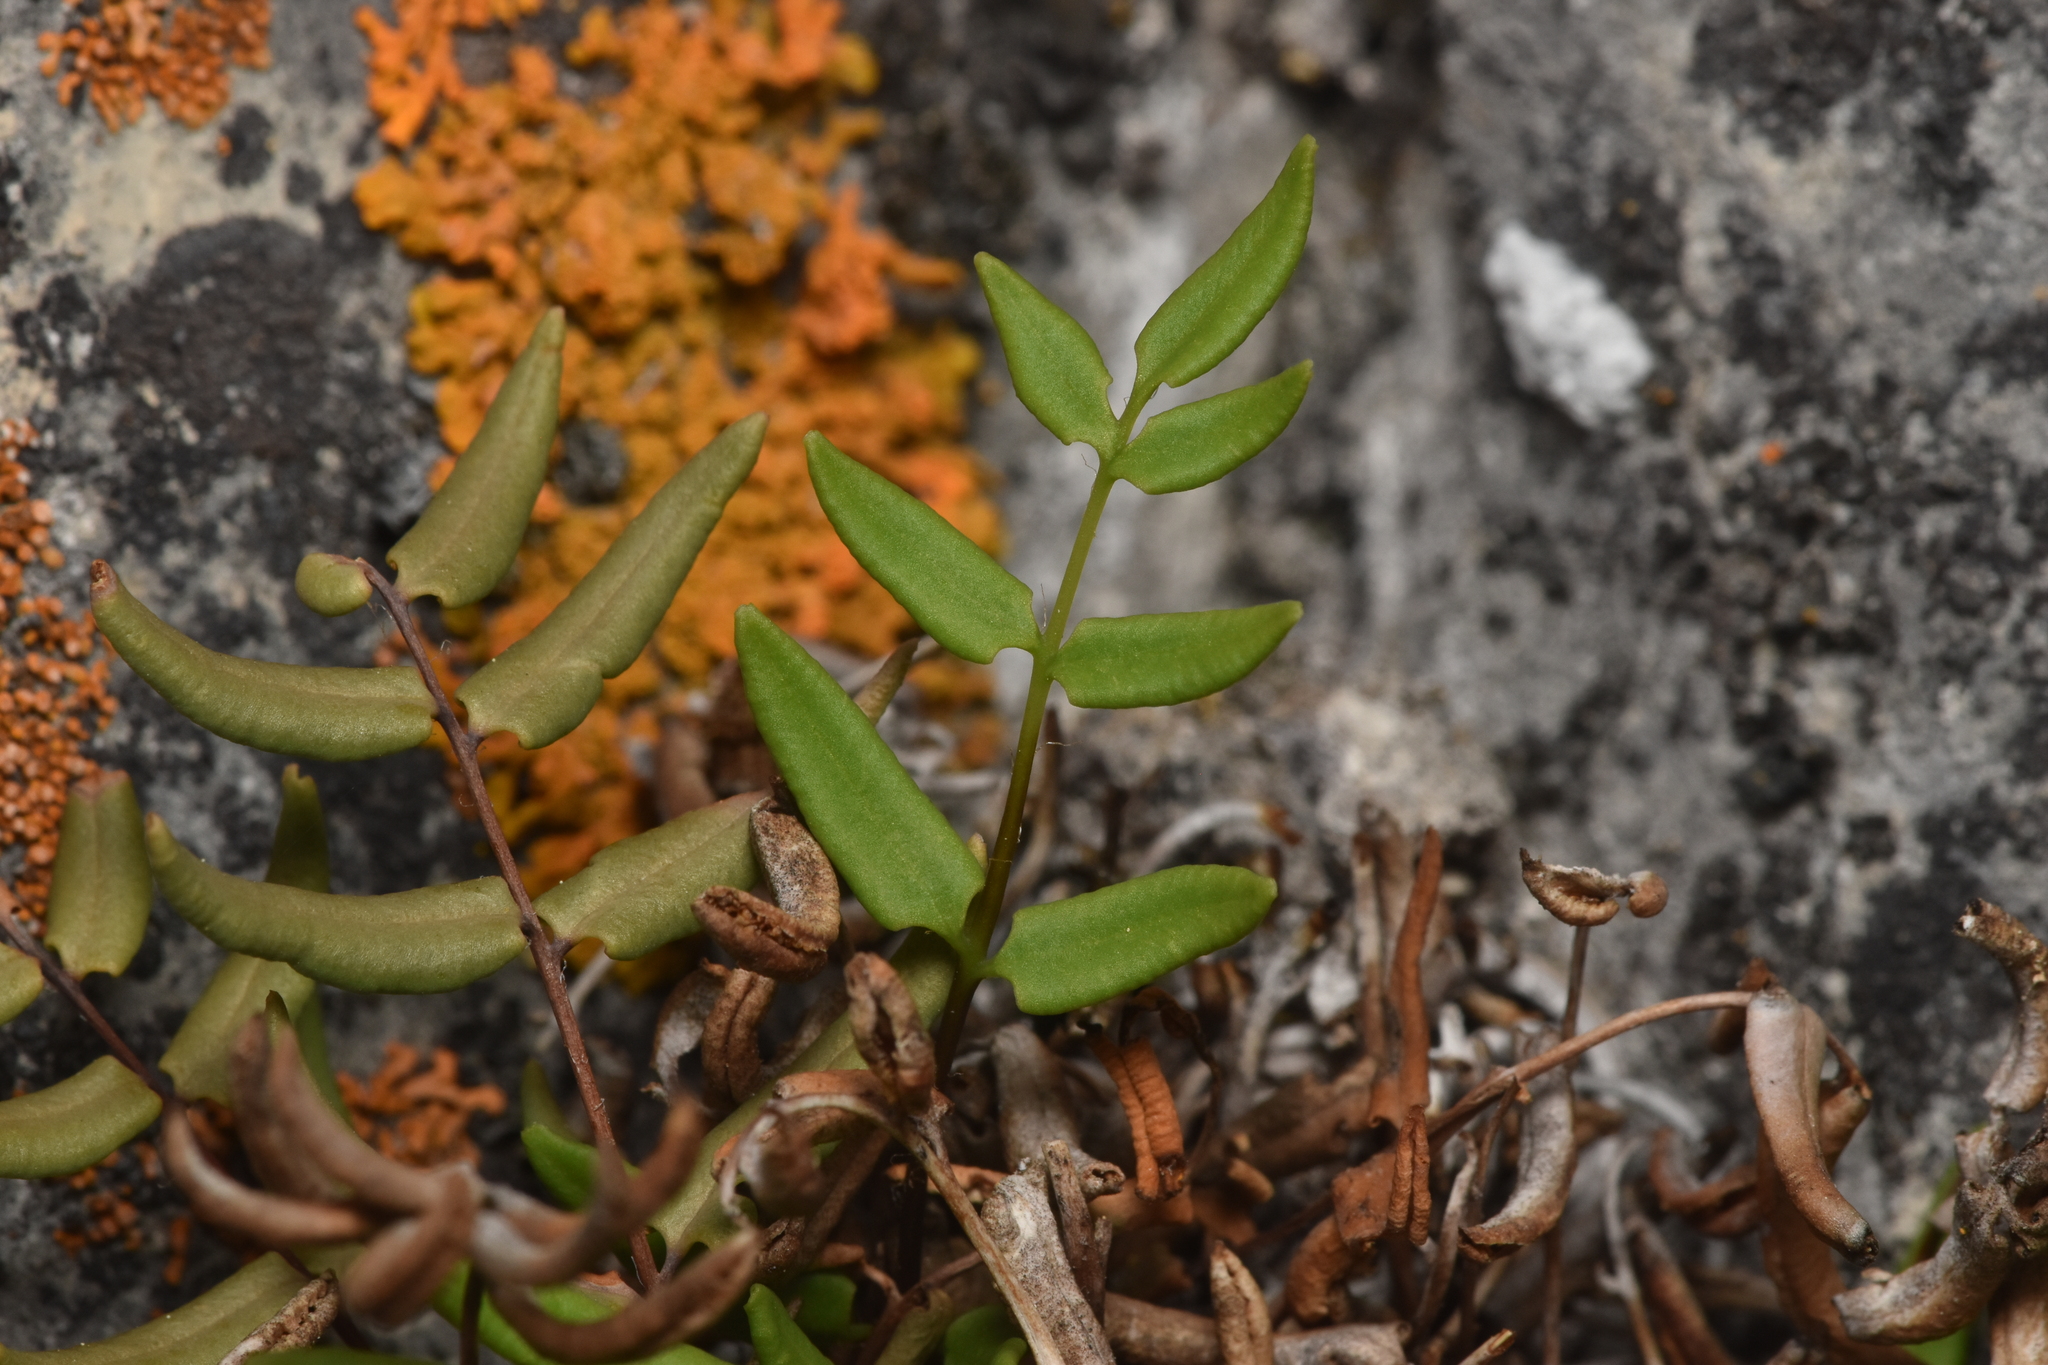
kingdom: Plantae
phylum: Tracheophyta
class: Polypodiopsida
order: Polypodiales
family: Pteridaceae
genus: Pellaea
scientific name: Pellaea glabella
